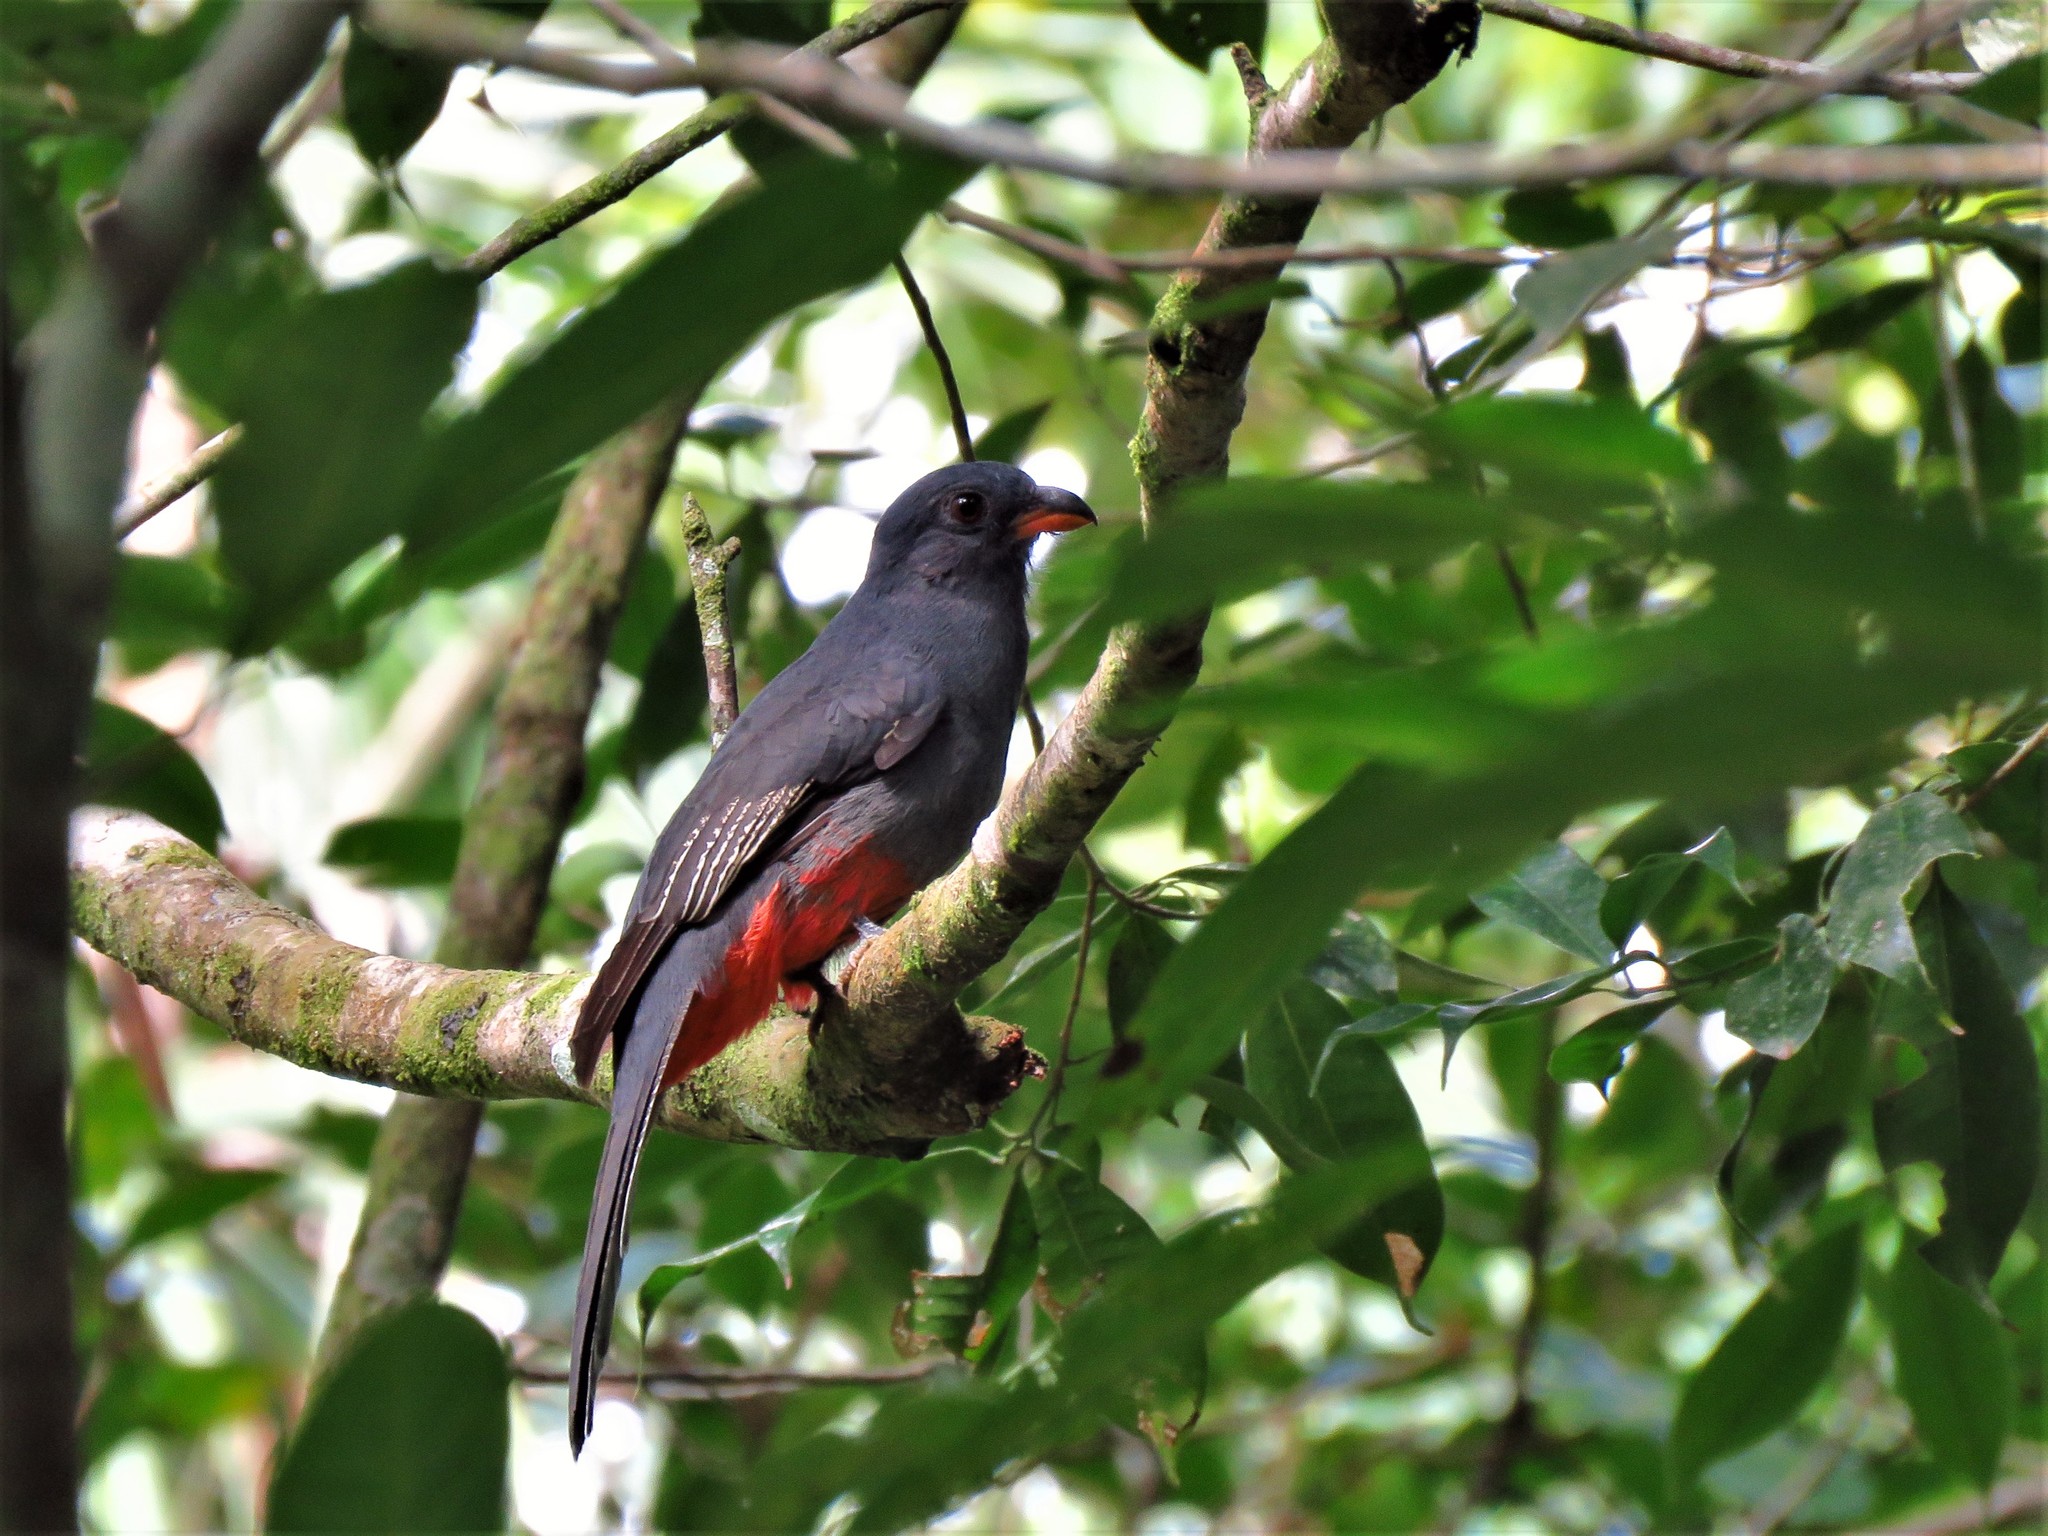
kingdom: Animalia
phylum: Chordata
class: Aves
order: Trogoniformes
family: Trogonidae
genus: Trogon
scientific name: Trogon massena
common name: Slaty-tailed trogon
